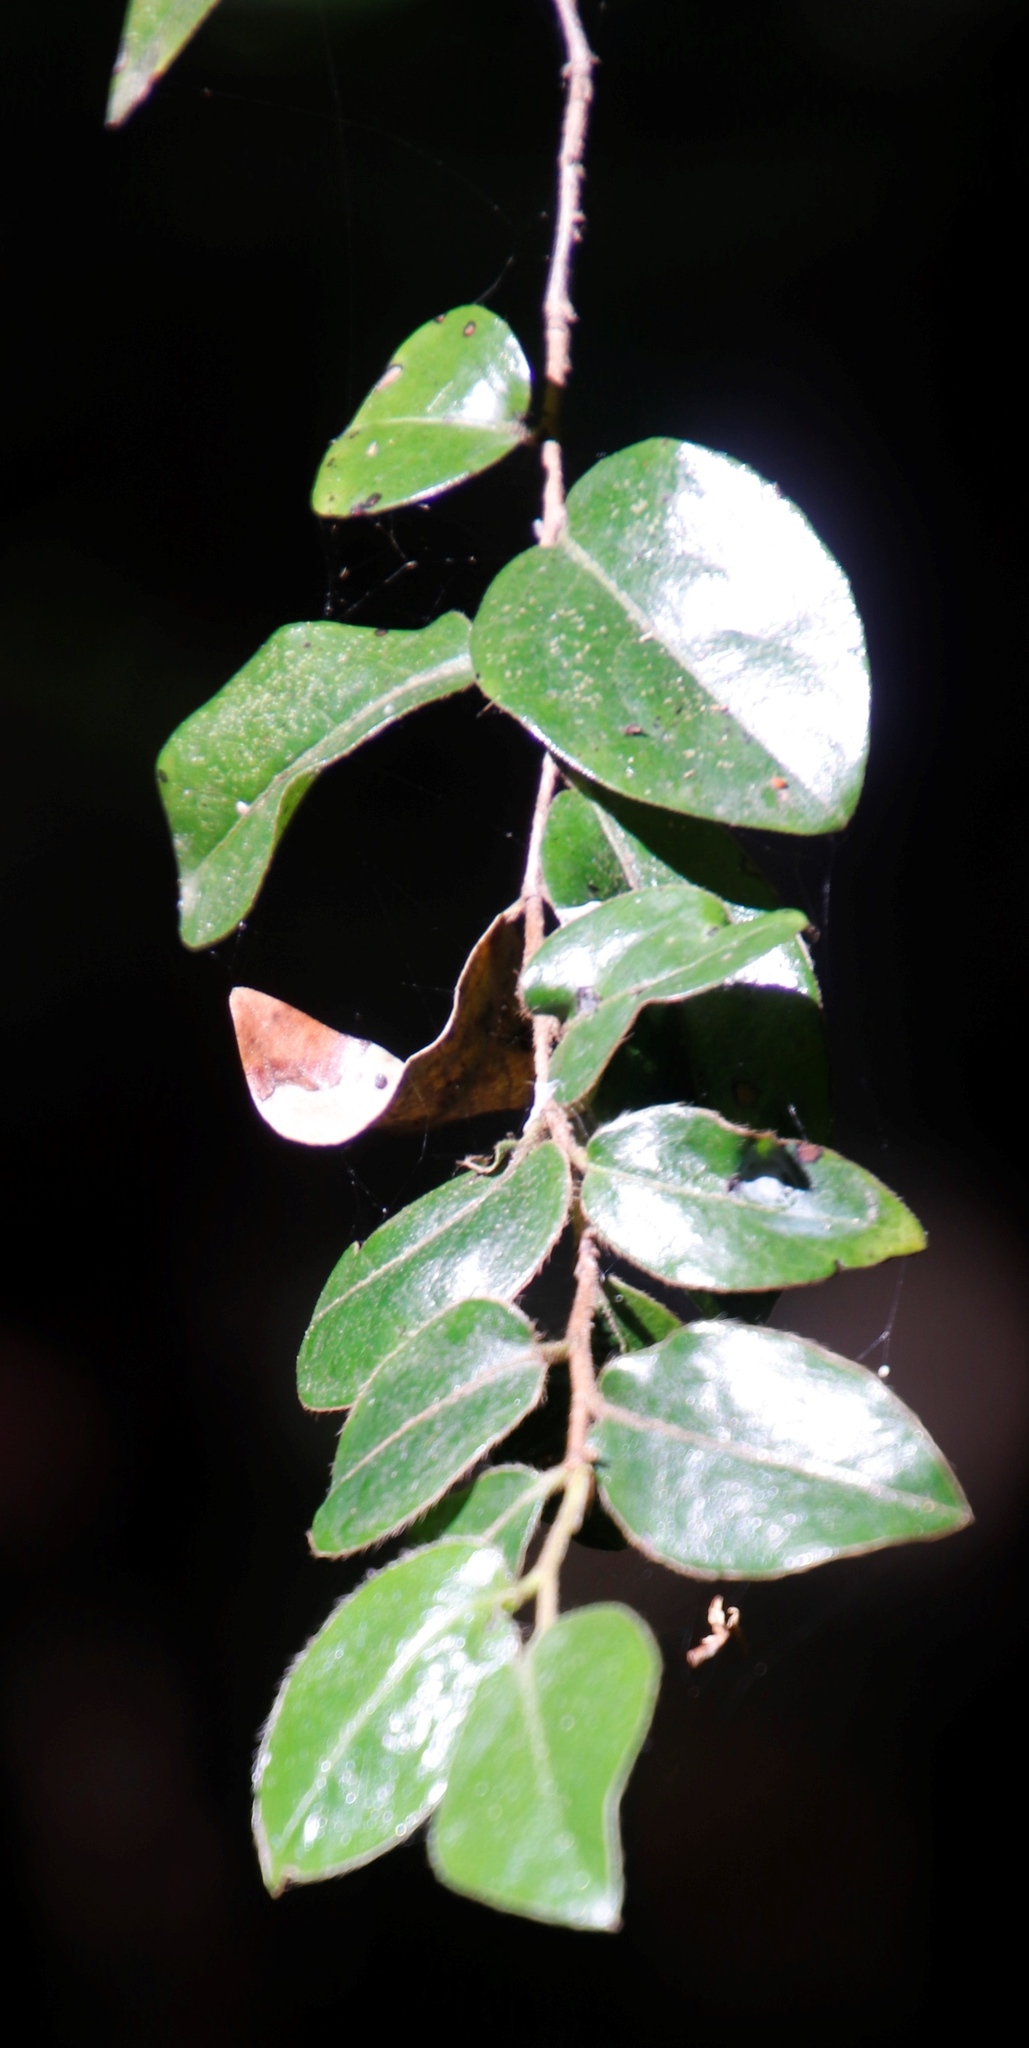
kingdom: Plantae
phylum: Tracheophyta
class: Magnoliopsida
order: Ericales
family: Ebenaceae
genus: Diospyros
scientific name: Diospyros whyteana
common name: Bladder-nut
